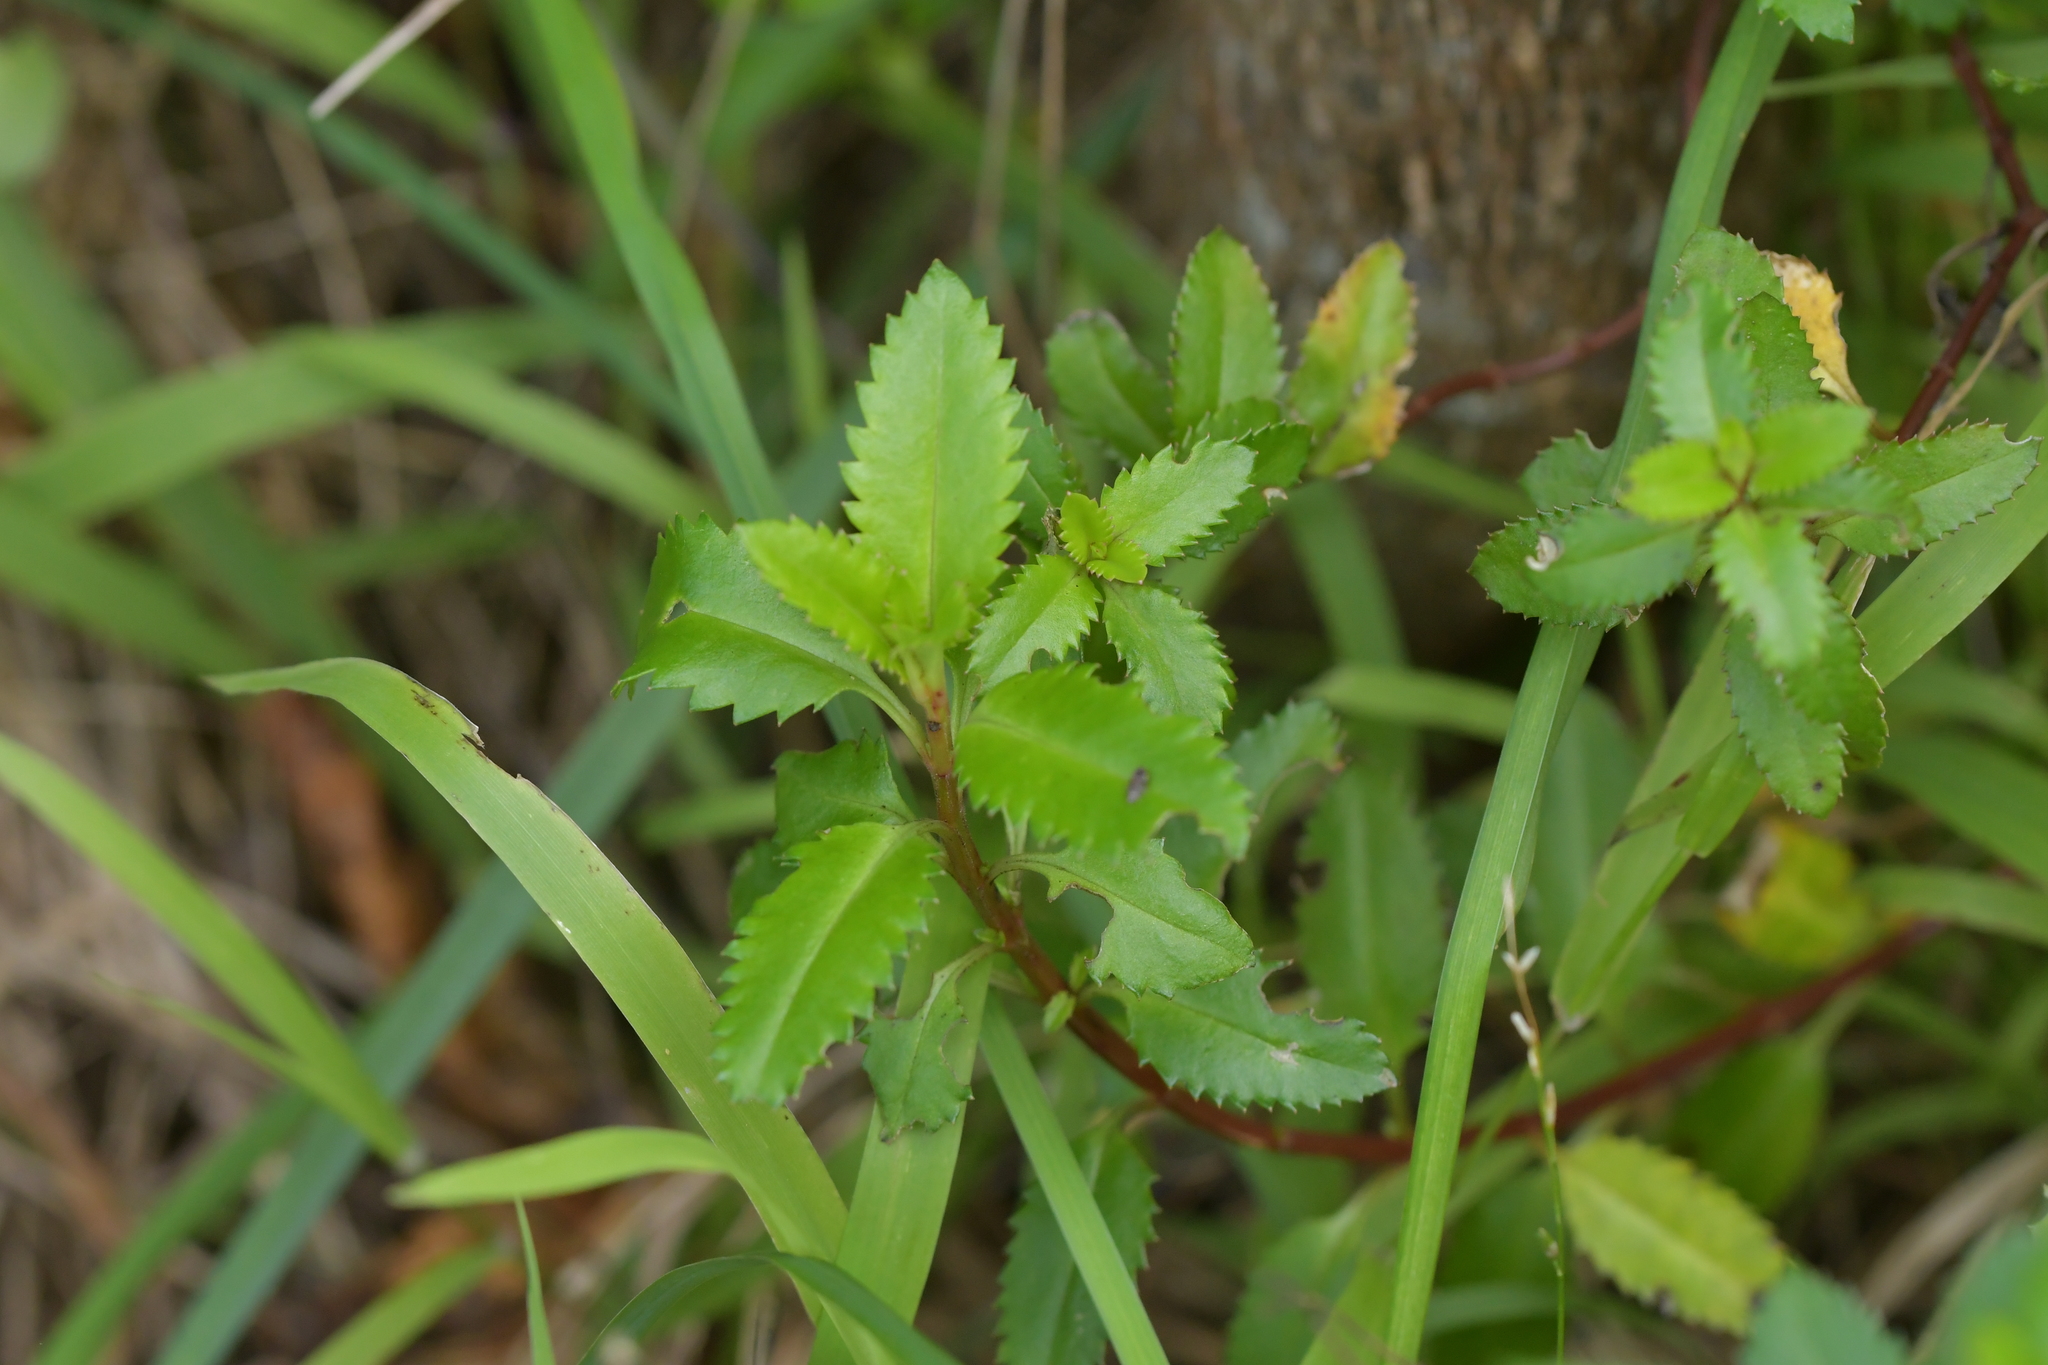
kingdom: Plantae
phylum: Tracheophyta
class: Magnoliopsida
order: Saxifragales
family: Haloragaceae
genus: Haloragis
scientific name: Haloragis erecta
